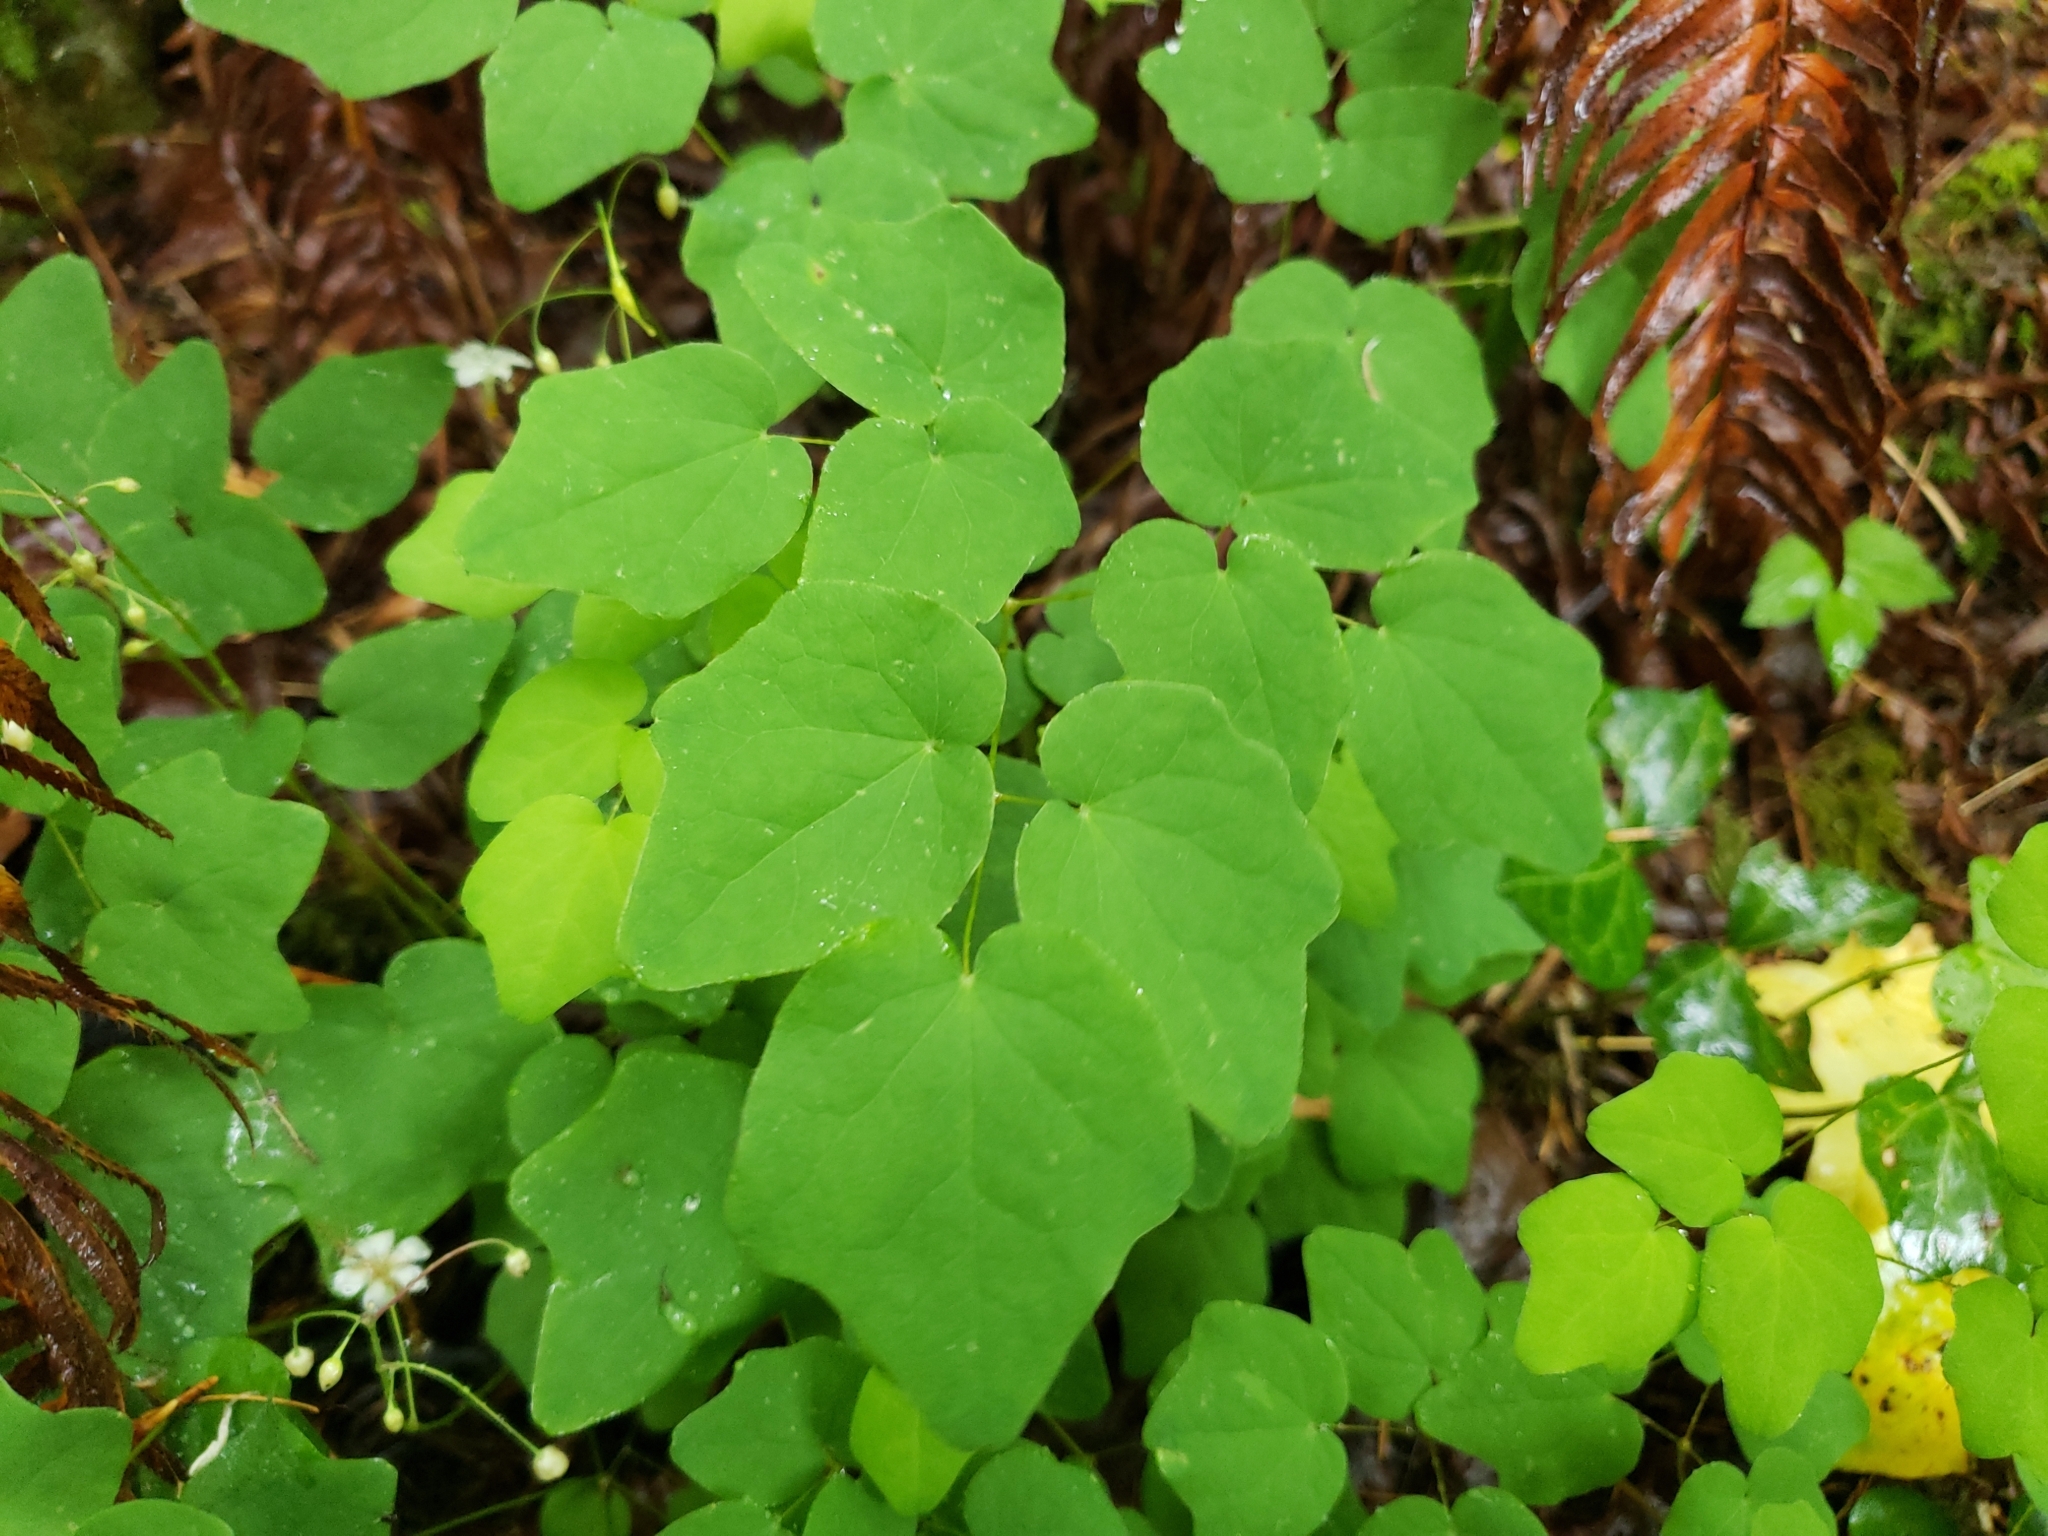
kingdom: Plantae
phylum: Tracheophyta
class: Magnoliopsida
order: Ranunculales
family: Berberidaceae
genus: Vancouveria
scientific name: Vancouveria hexandra
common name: Northern inside-out-flower
